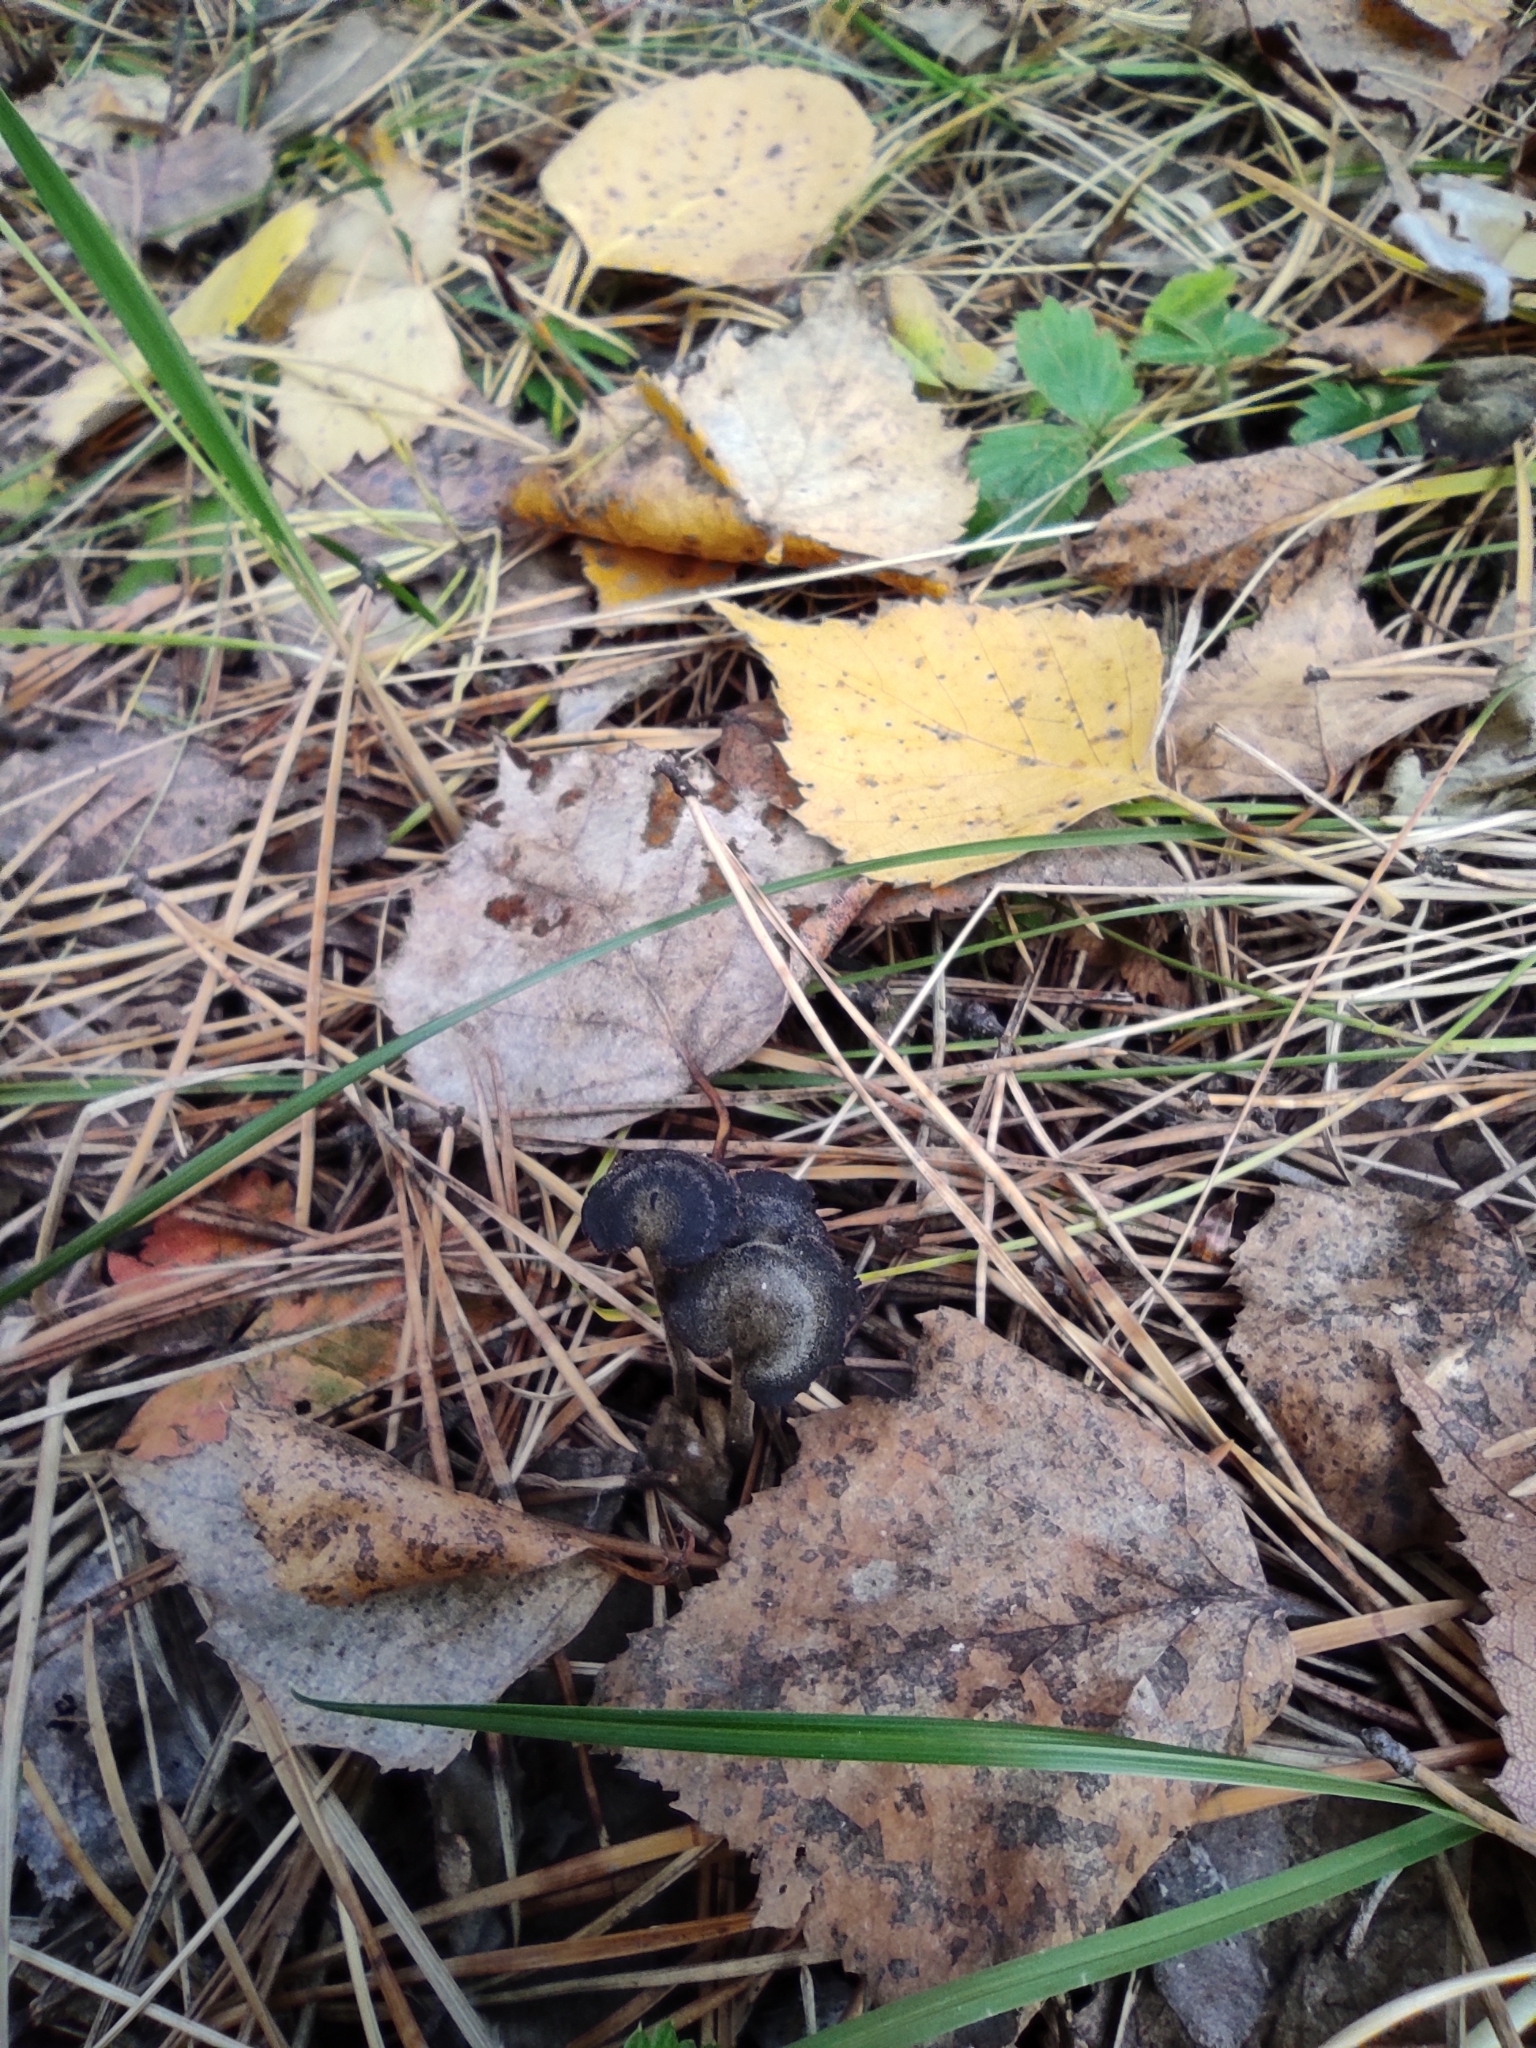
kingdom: Fungi
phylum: Basidiomycota
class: Agaricomycetes
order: Russulales
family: Auriscalpiaceae
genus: Auriscalpium
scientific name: Auriscalpium vulgare
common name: Earpick fungus
